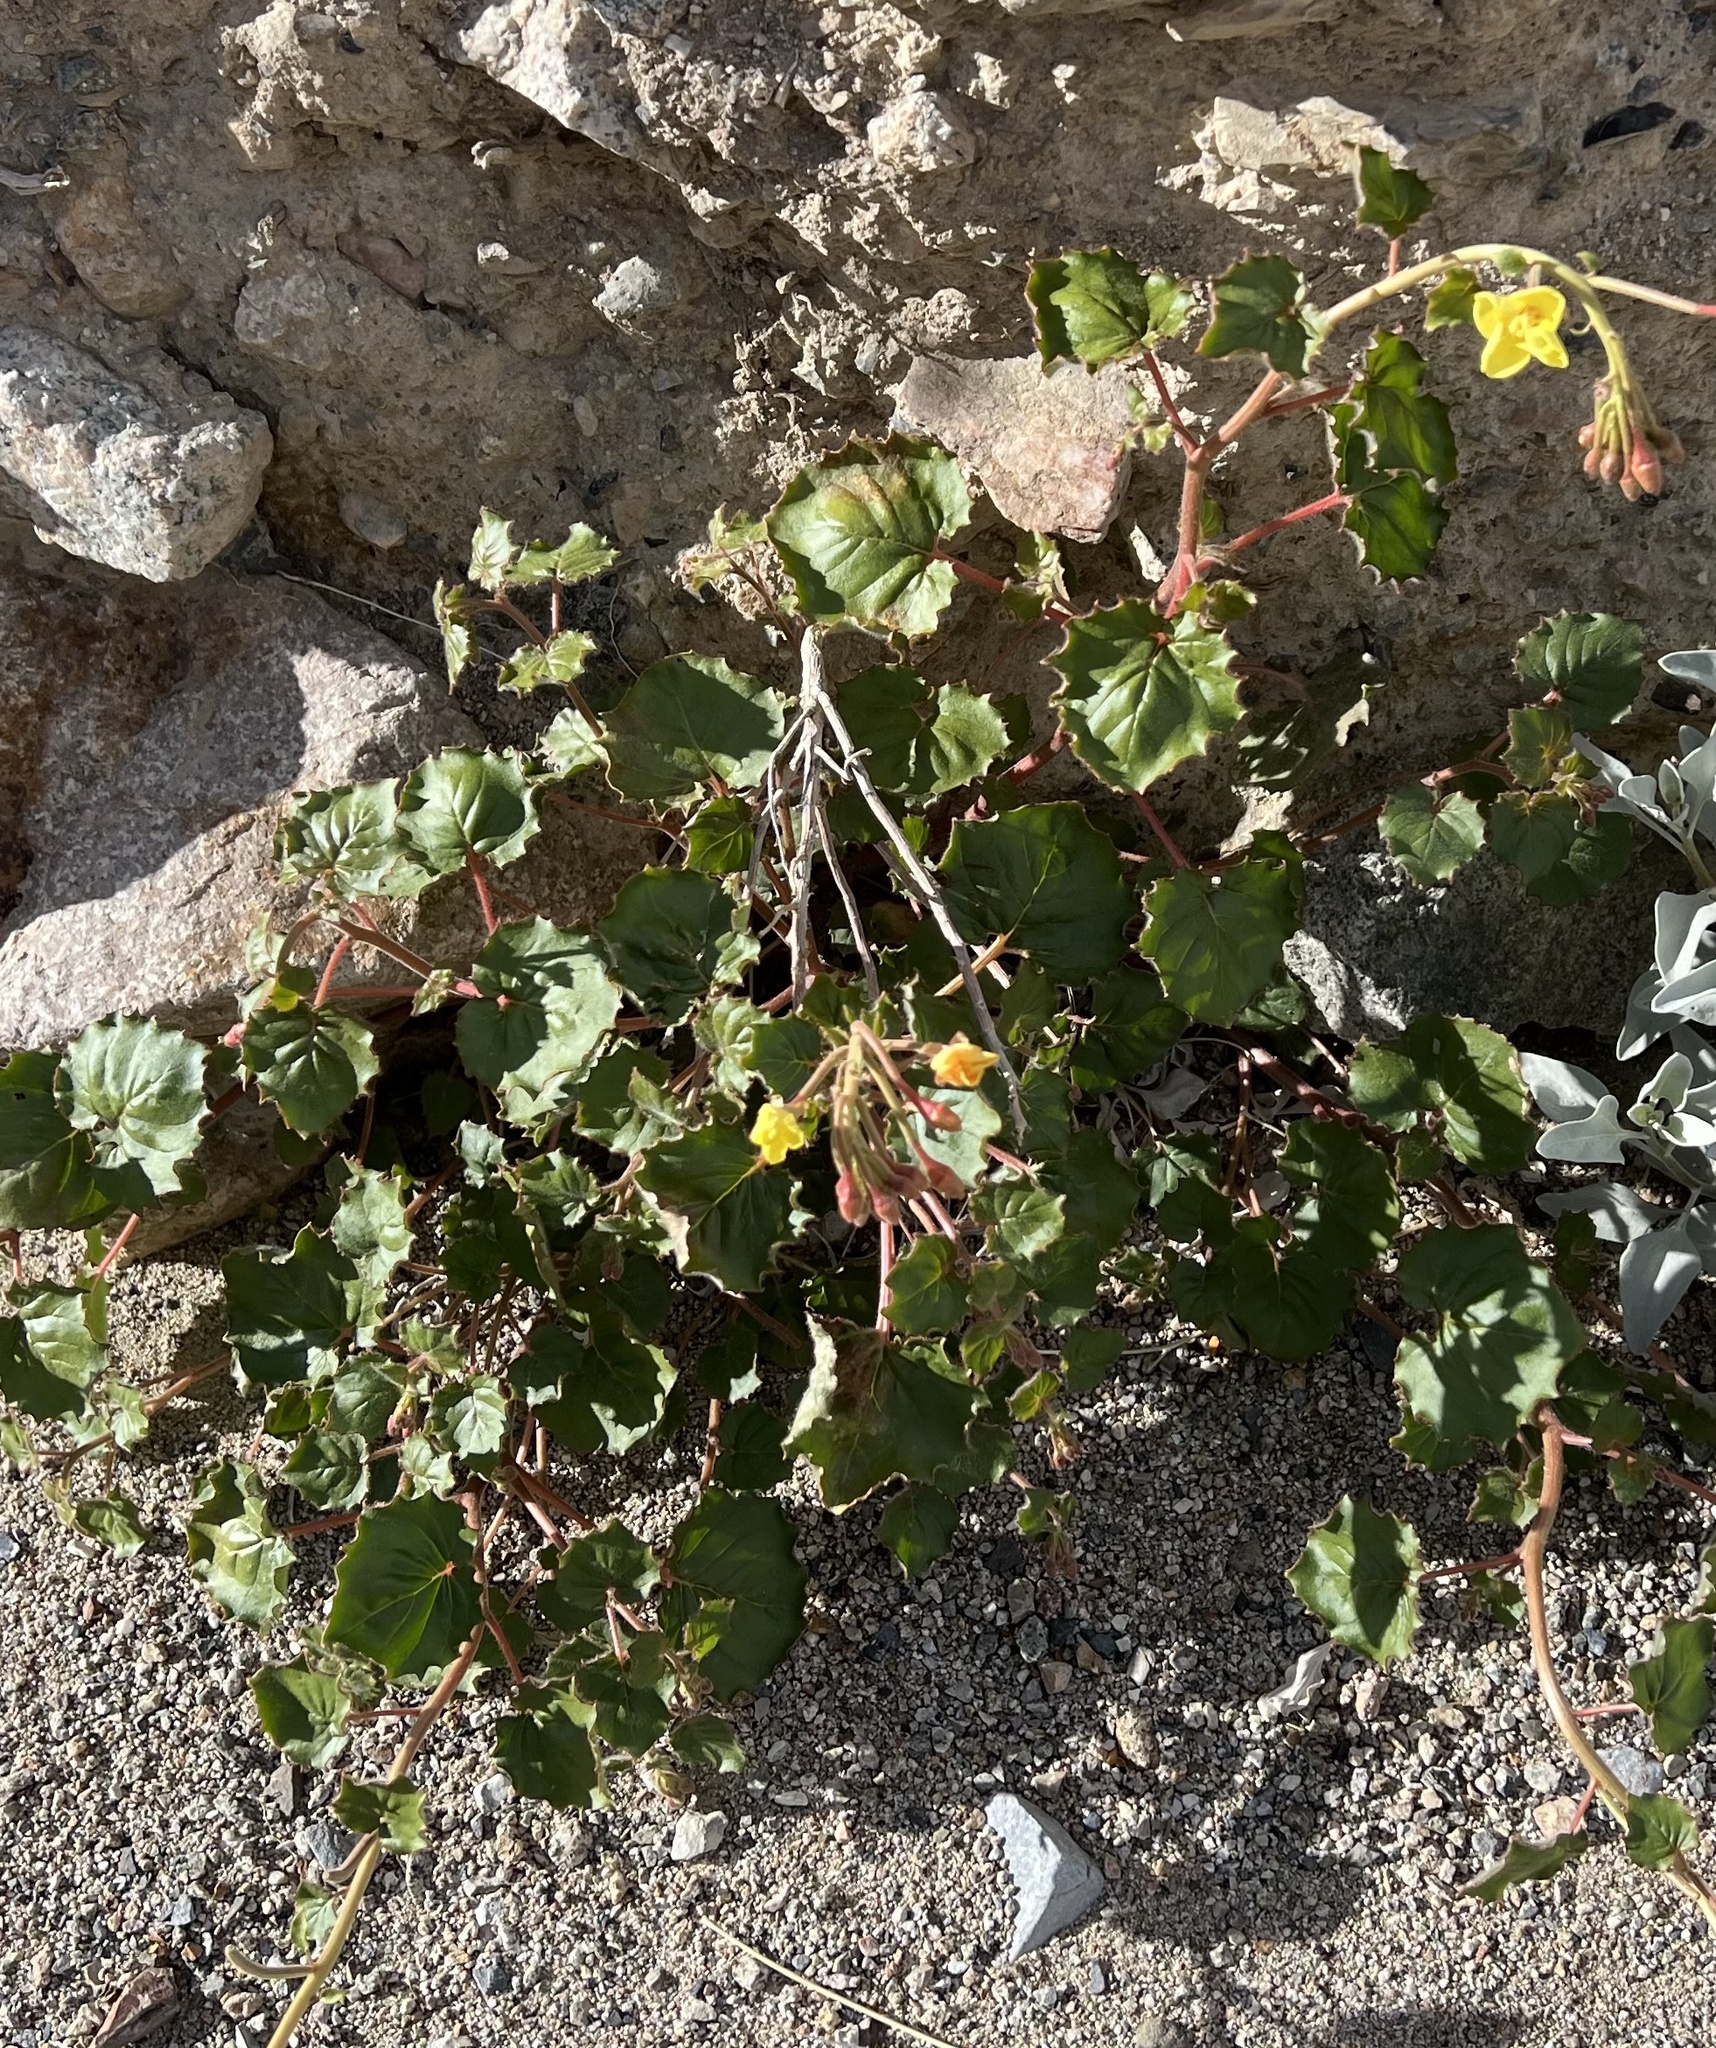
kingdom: Plantae
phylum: Tracheophyta
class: Magnoliopsida
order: Myrtales
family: Onagraceae
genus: Chylismia
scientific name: Chylismia cardiophylla
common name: Heartleaf suncup
